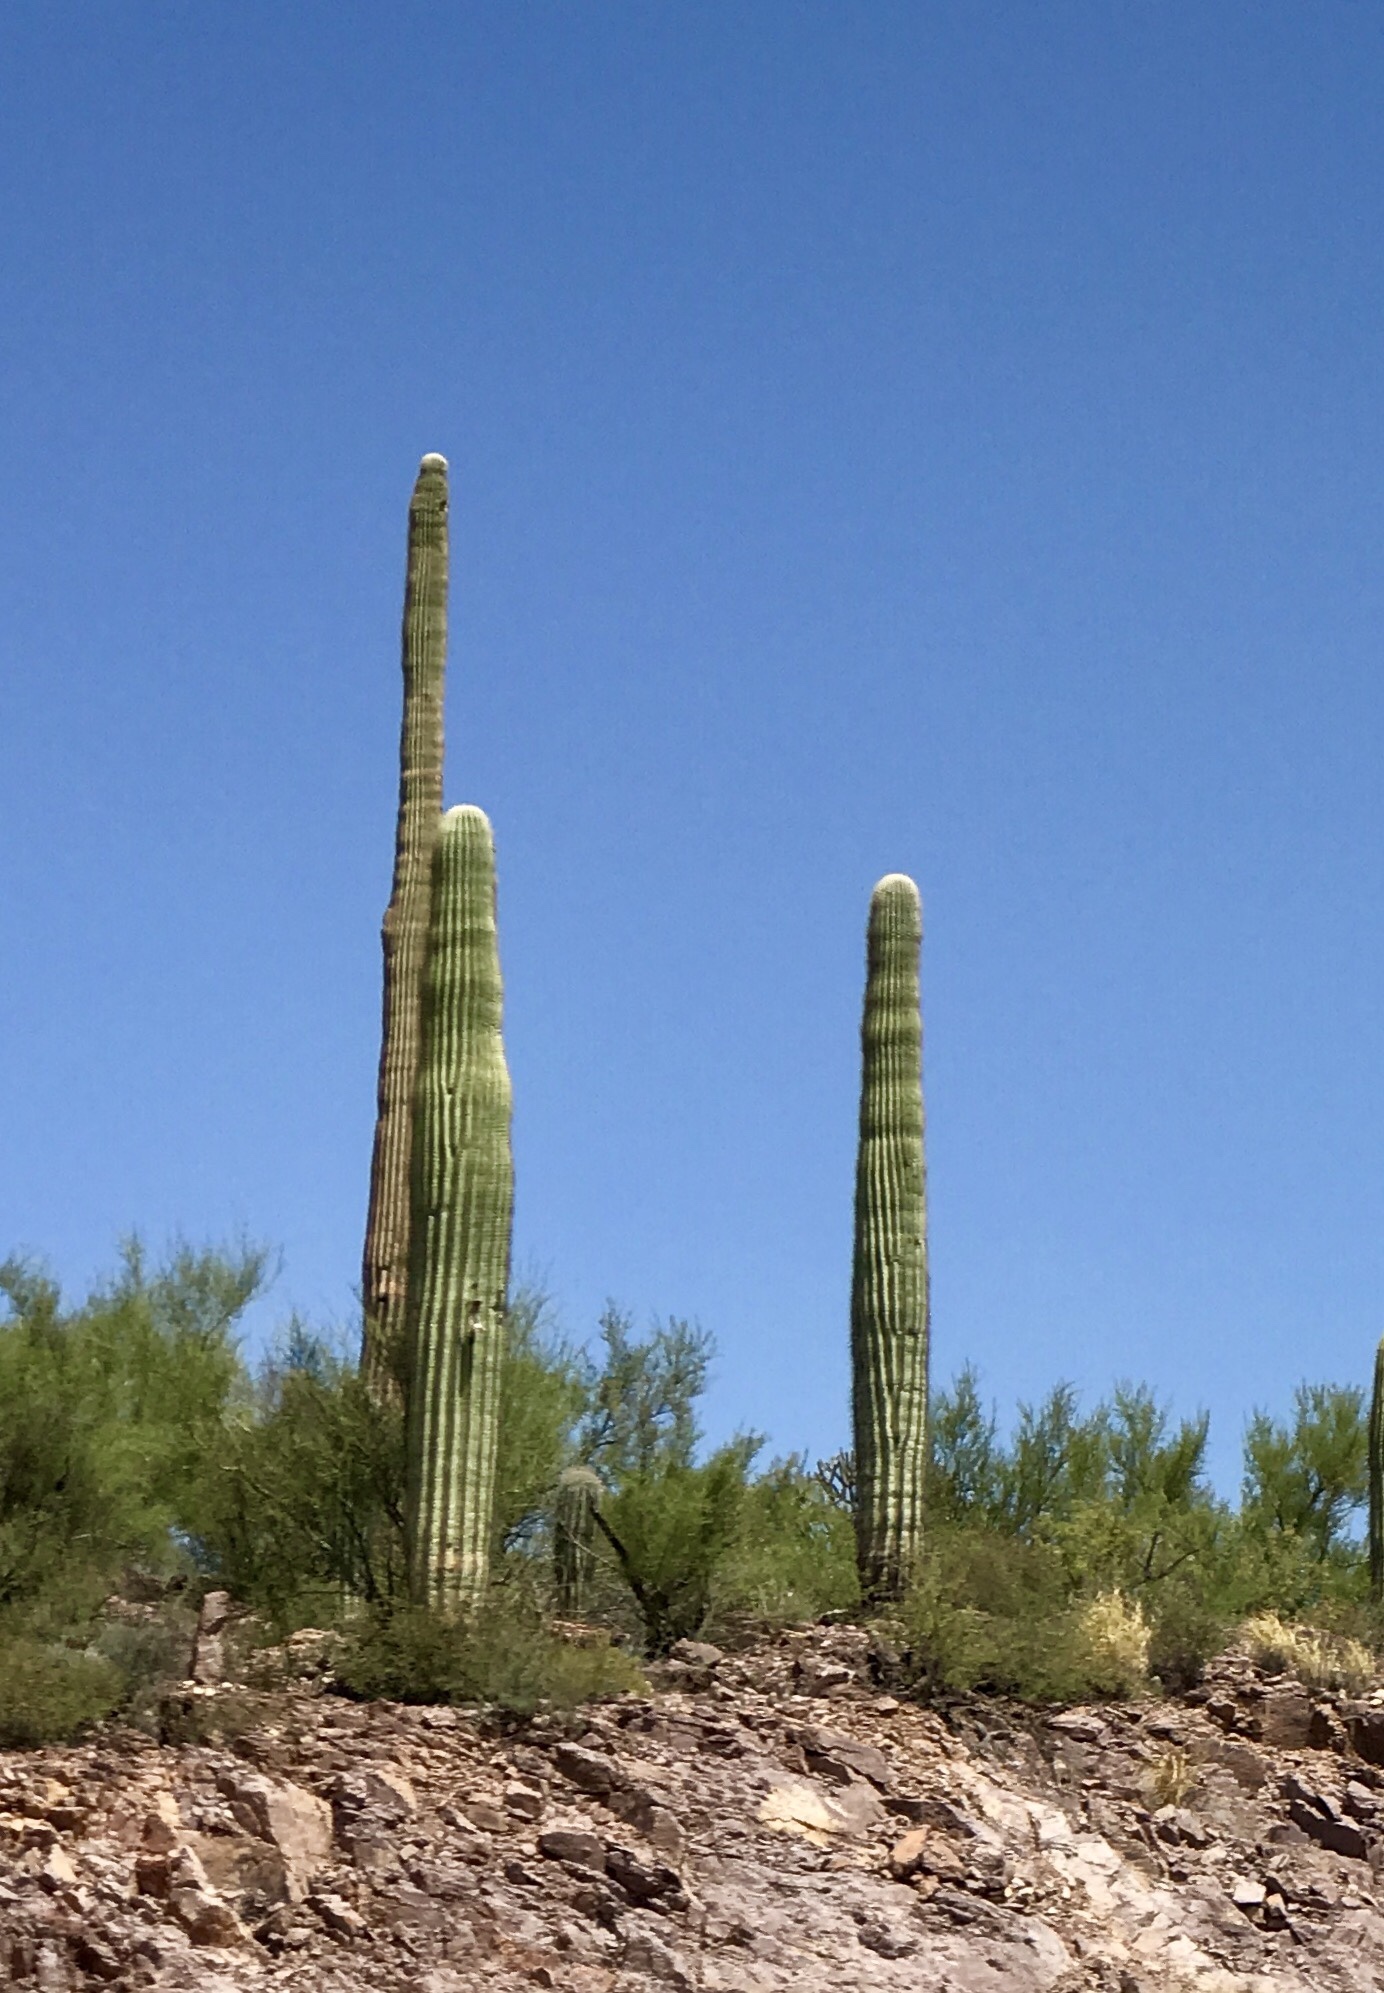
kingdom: Plantae
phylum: Tracheophyta
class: Magnoliopsida
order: Caryophyllales
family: Cactaceae
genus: Carnegiea
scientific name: Carnegiea gigantea
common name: Saguaro
